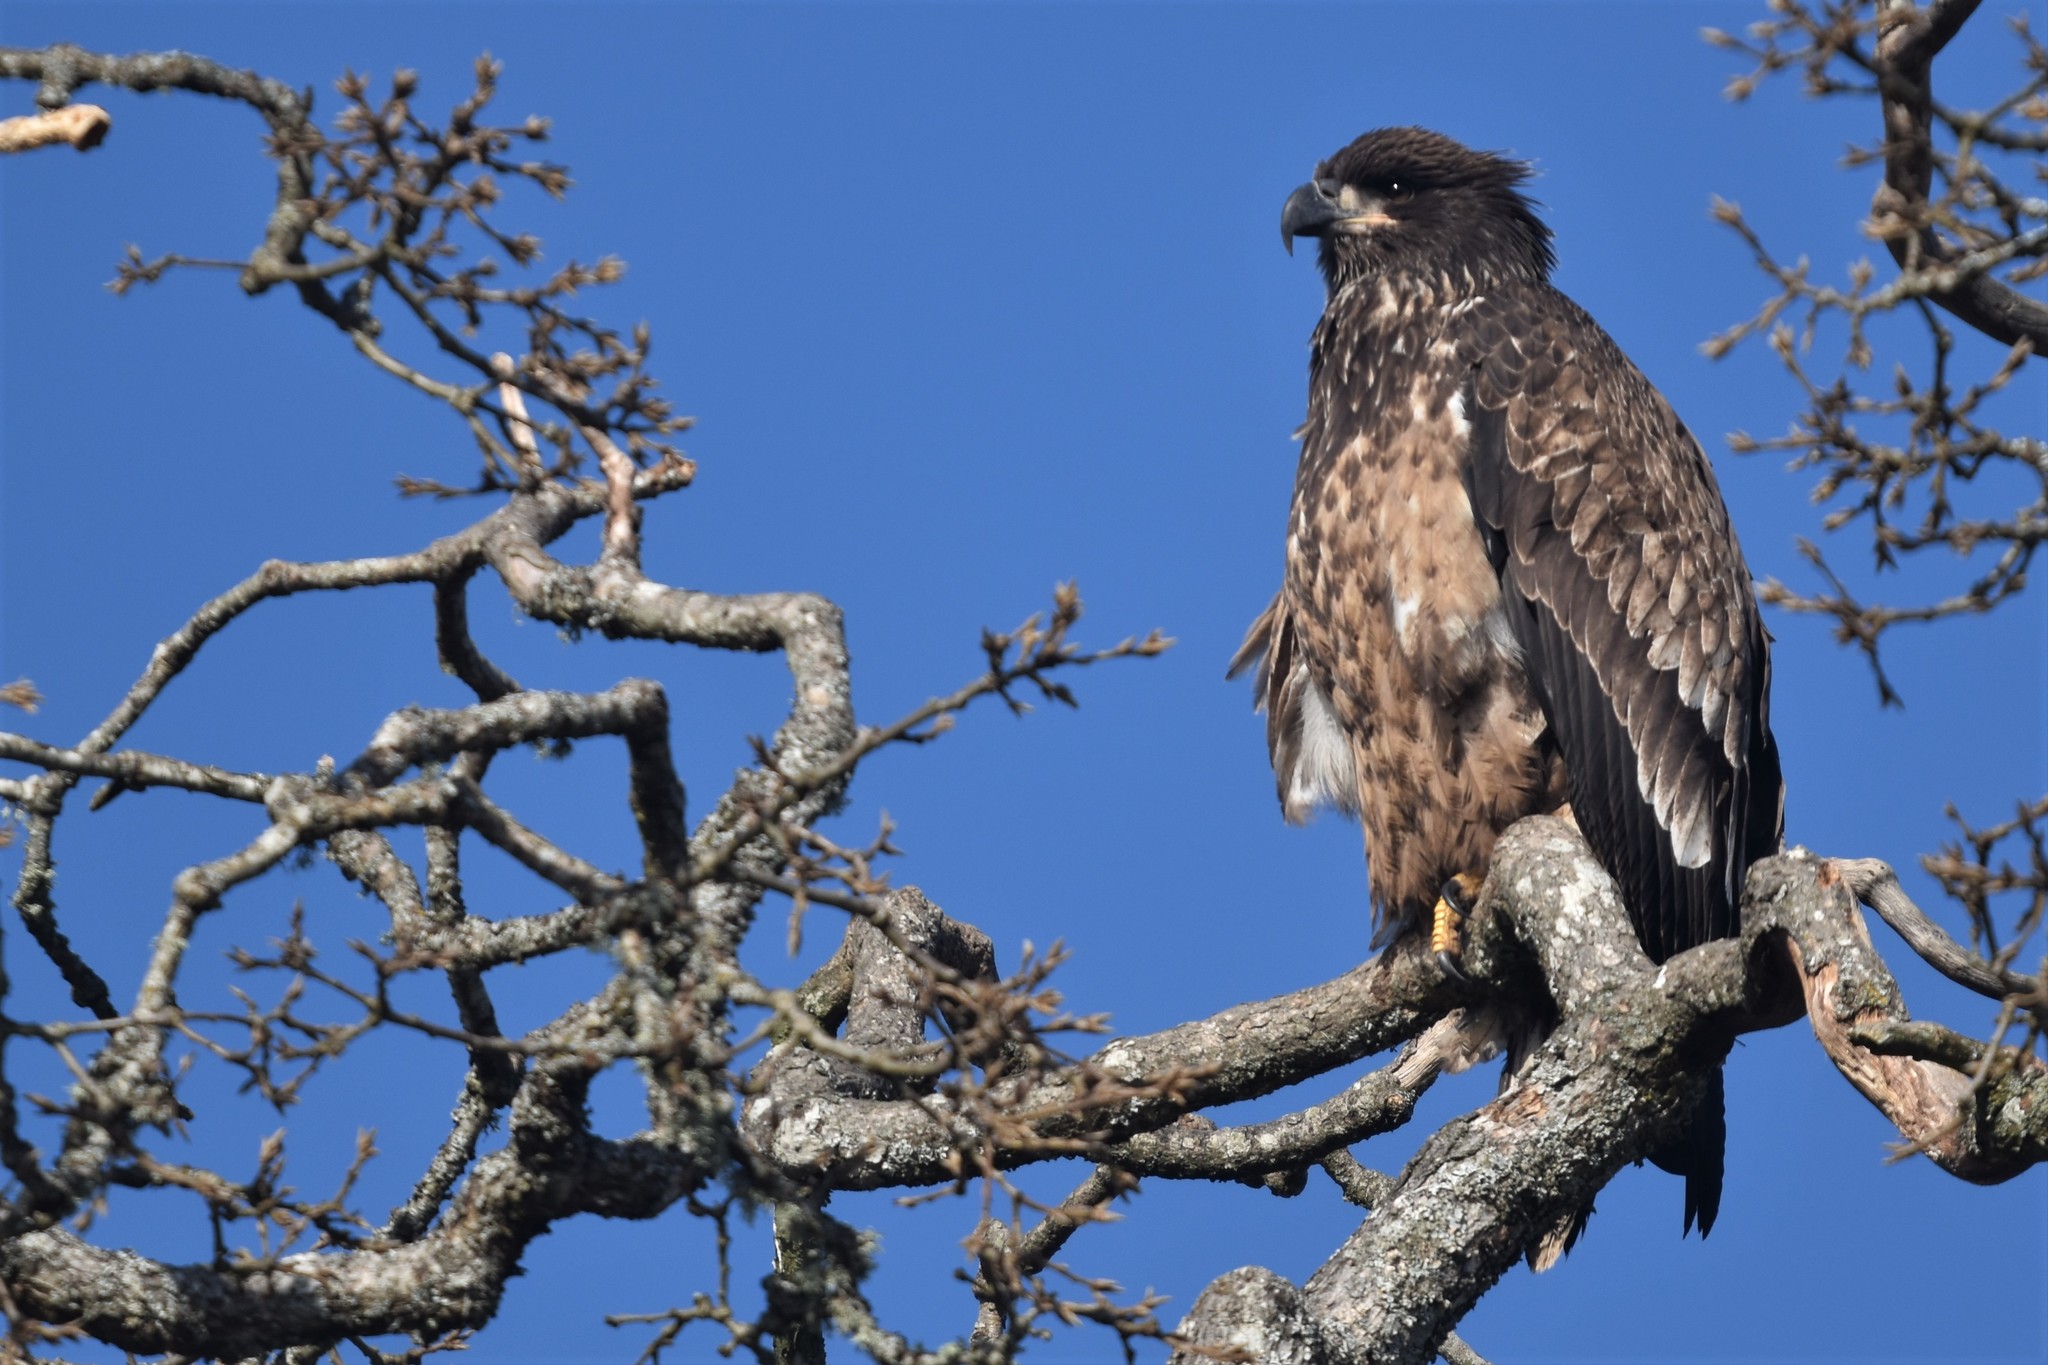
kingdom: Animalia
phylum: Chordata
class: Aves
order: Accipitriformes
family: Accipitridae
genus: Haliaeetus
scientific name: Haliaeetus leucocephalus
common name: Bald eagle
